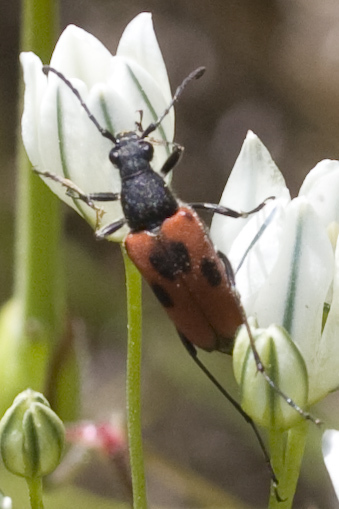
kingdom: Animalia
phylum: Arthropoda
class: Insecta
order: Coleoptera
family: Cerambycidae
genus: Anastrangalia
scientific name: Anastrangalia laetifica
